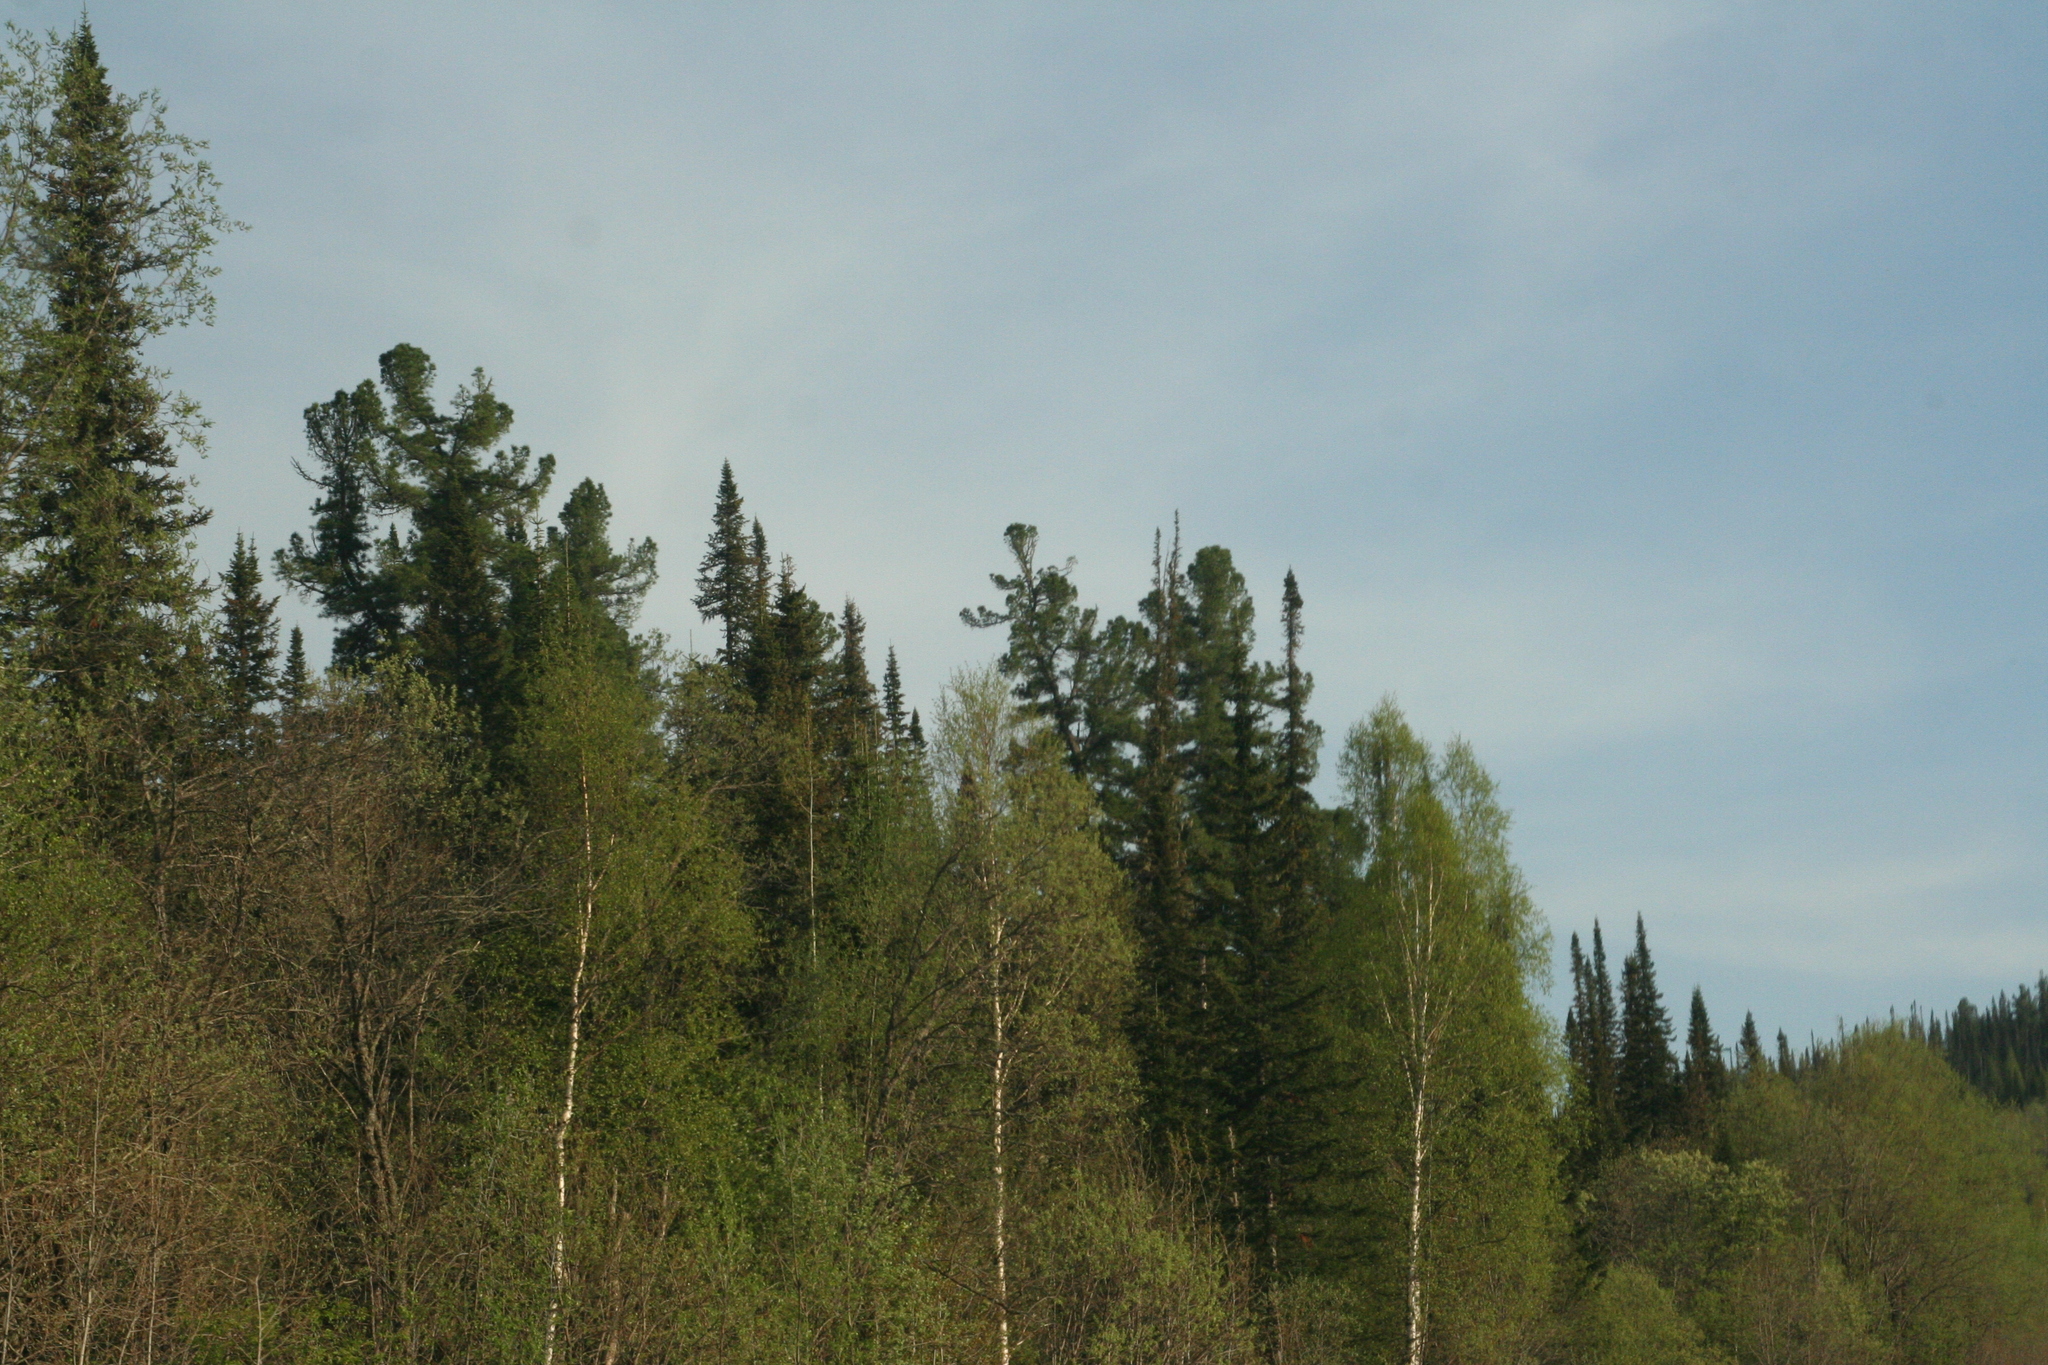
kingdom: Plantae
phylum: Tracheophyta
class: Pinopsida
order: Pinales
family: Pinaceae
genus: Abies
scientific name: Abies sibirica
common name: Siberian fir
